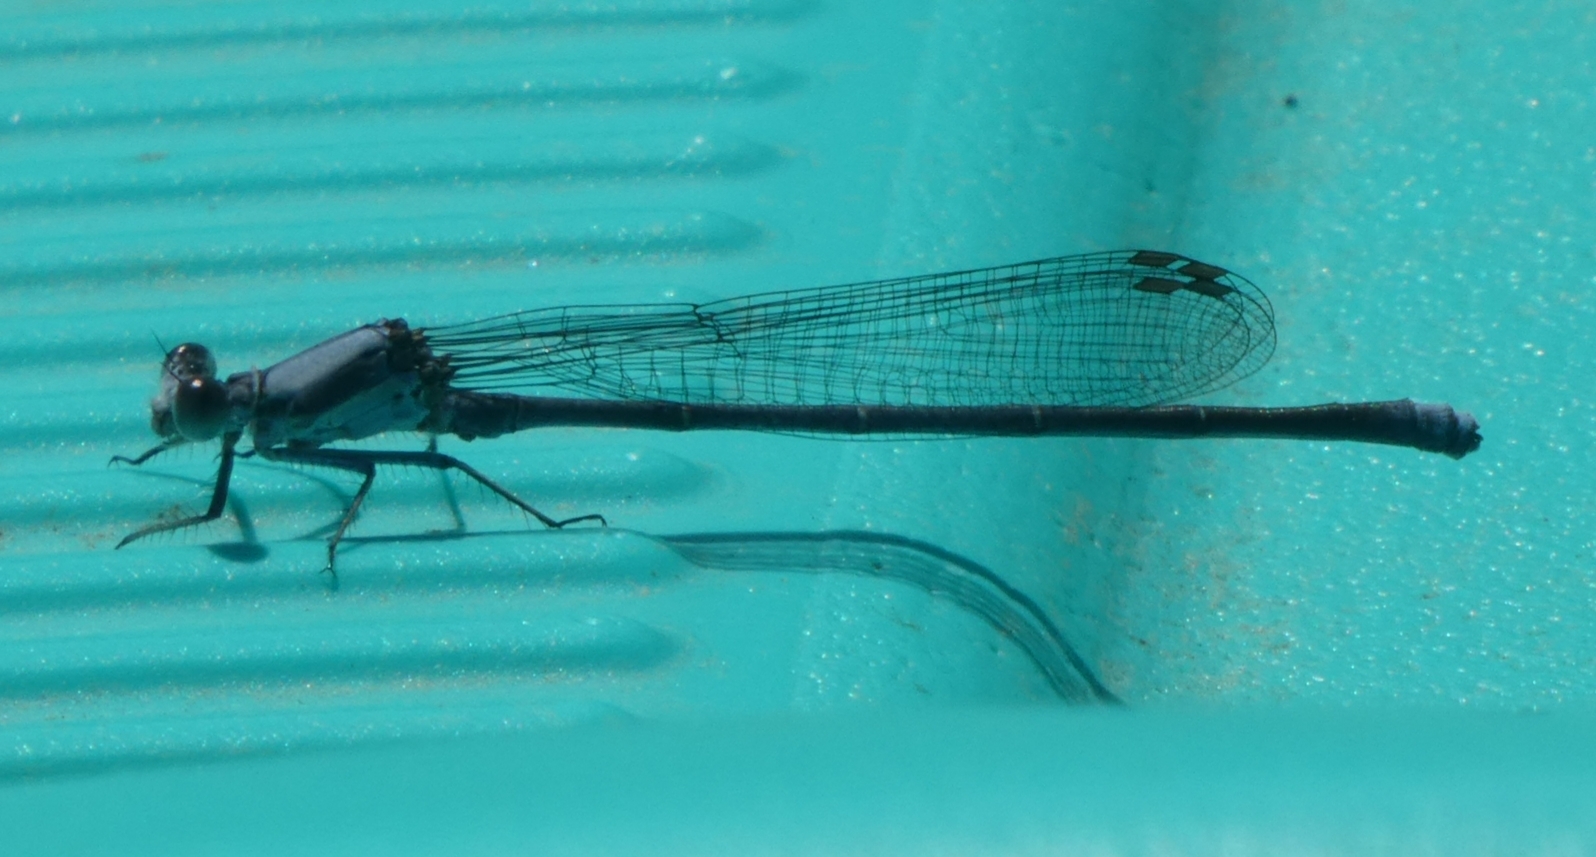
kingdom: Animalia
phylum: Arthropoda
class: Insecta
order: Odonata
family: Coenagrionidae
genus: Argia
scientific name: Argia moesta
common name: Powdered dancer
